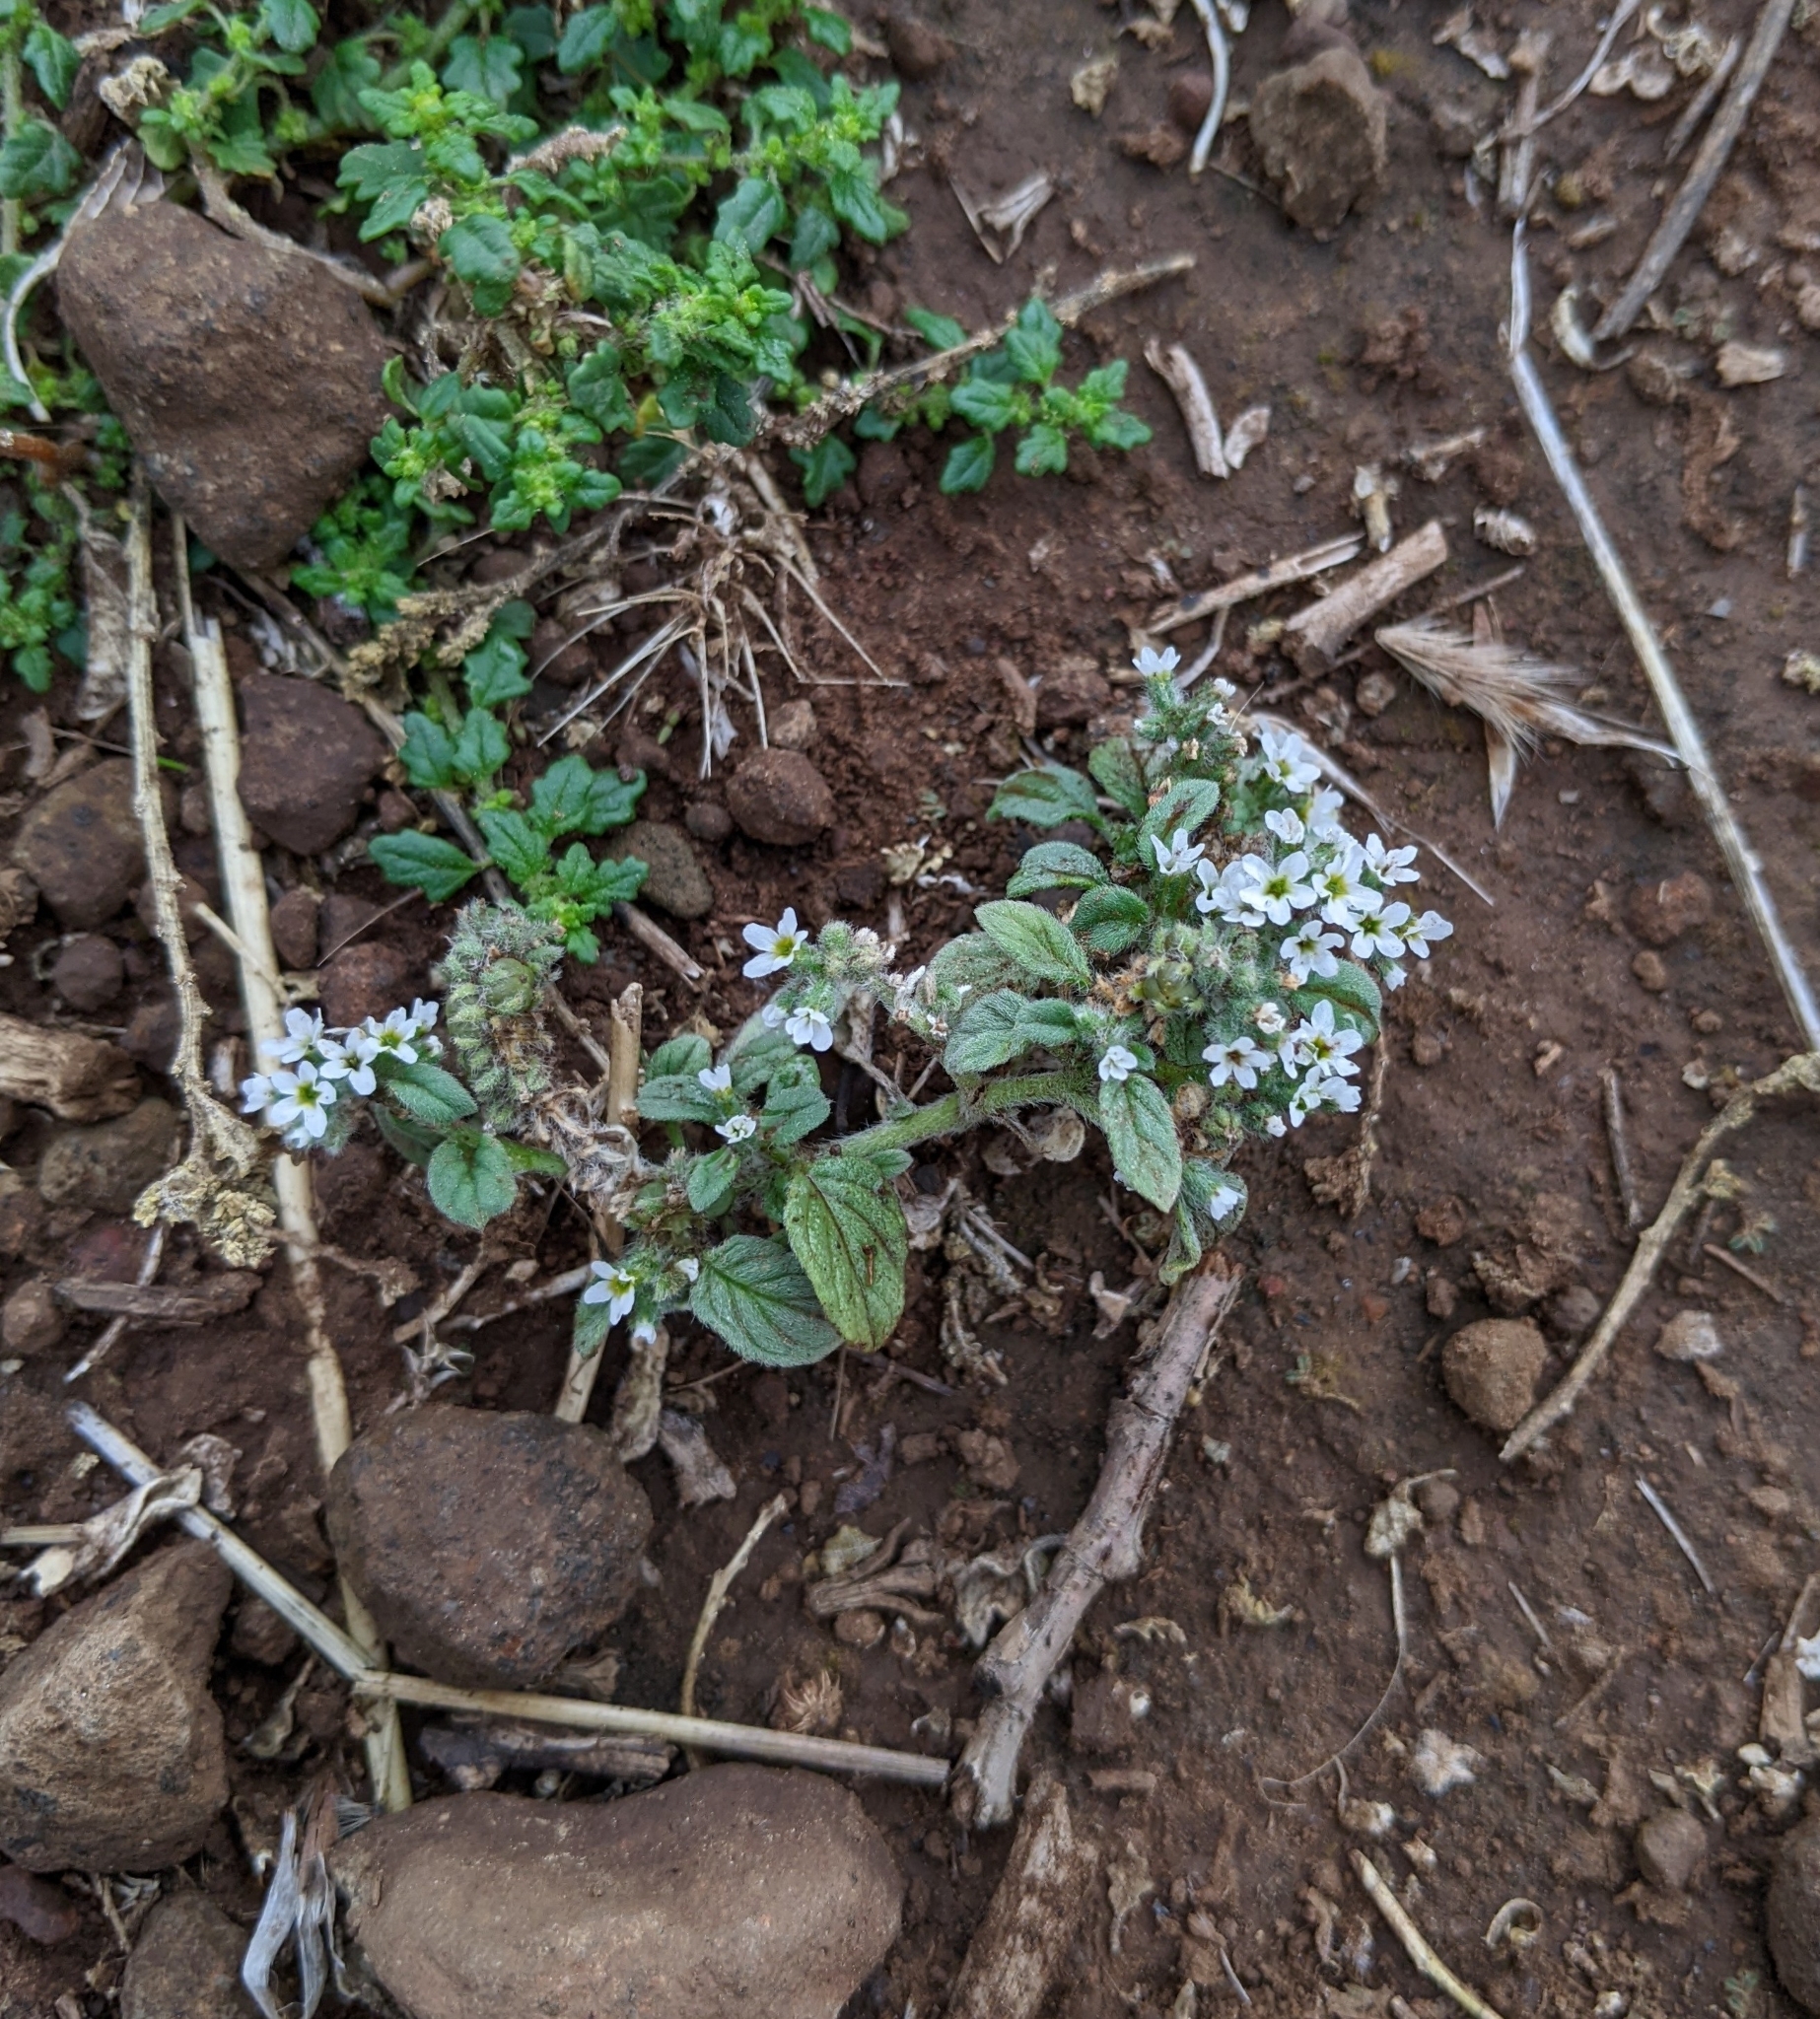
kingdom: Plantae
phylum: Tracheophyta
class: Magnoliopsida
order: Boraginales
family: Heliotropiaceae
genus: Heliotropium
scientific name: Heliotropium europaeum
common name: European heliotrope
